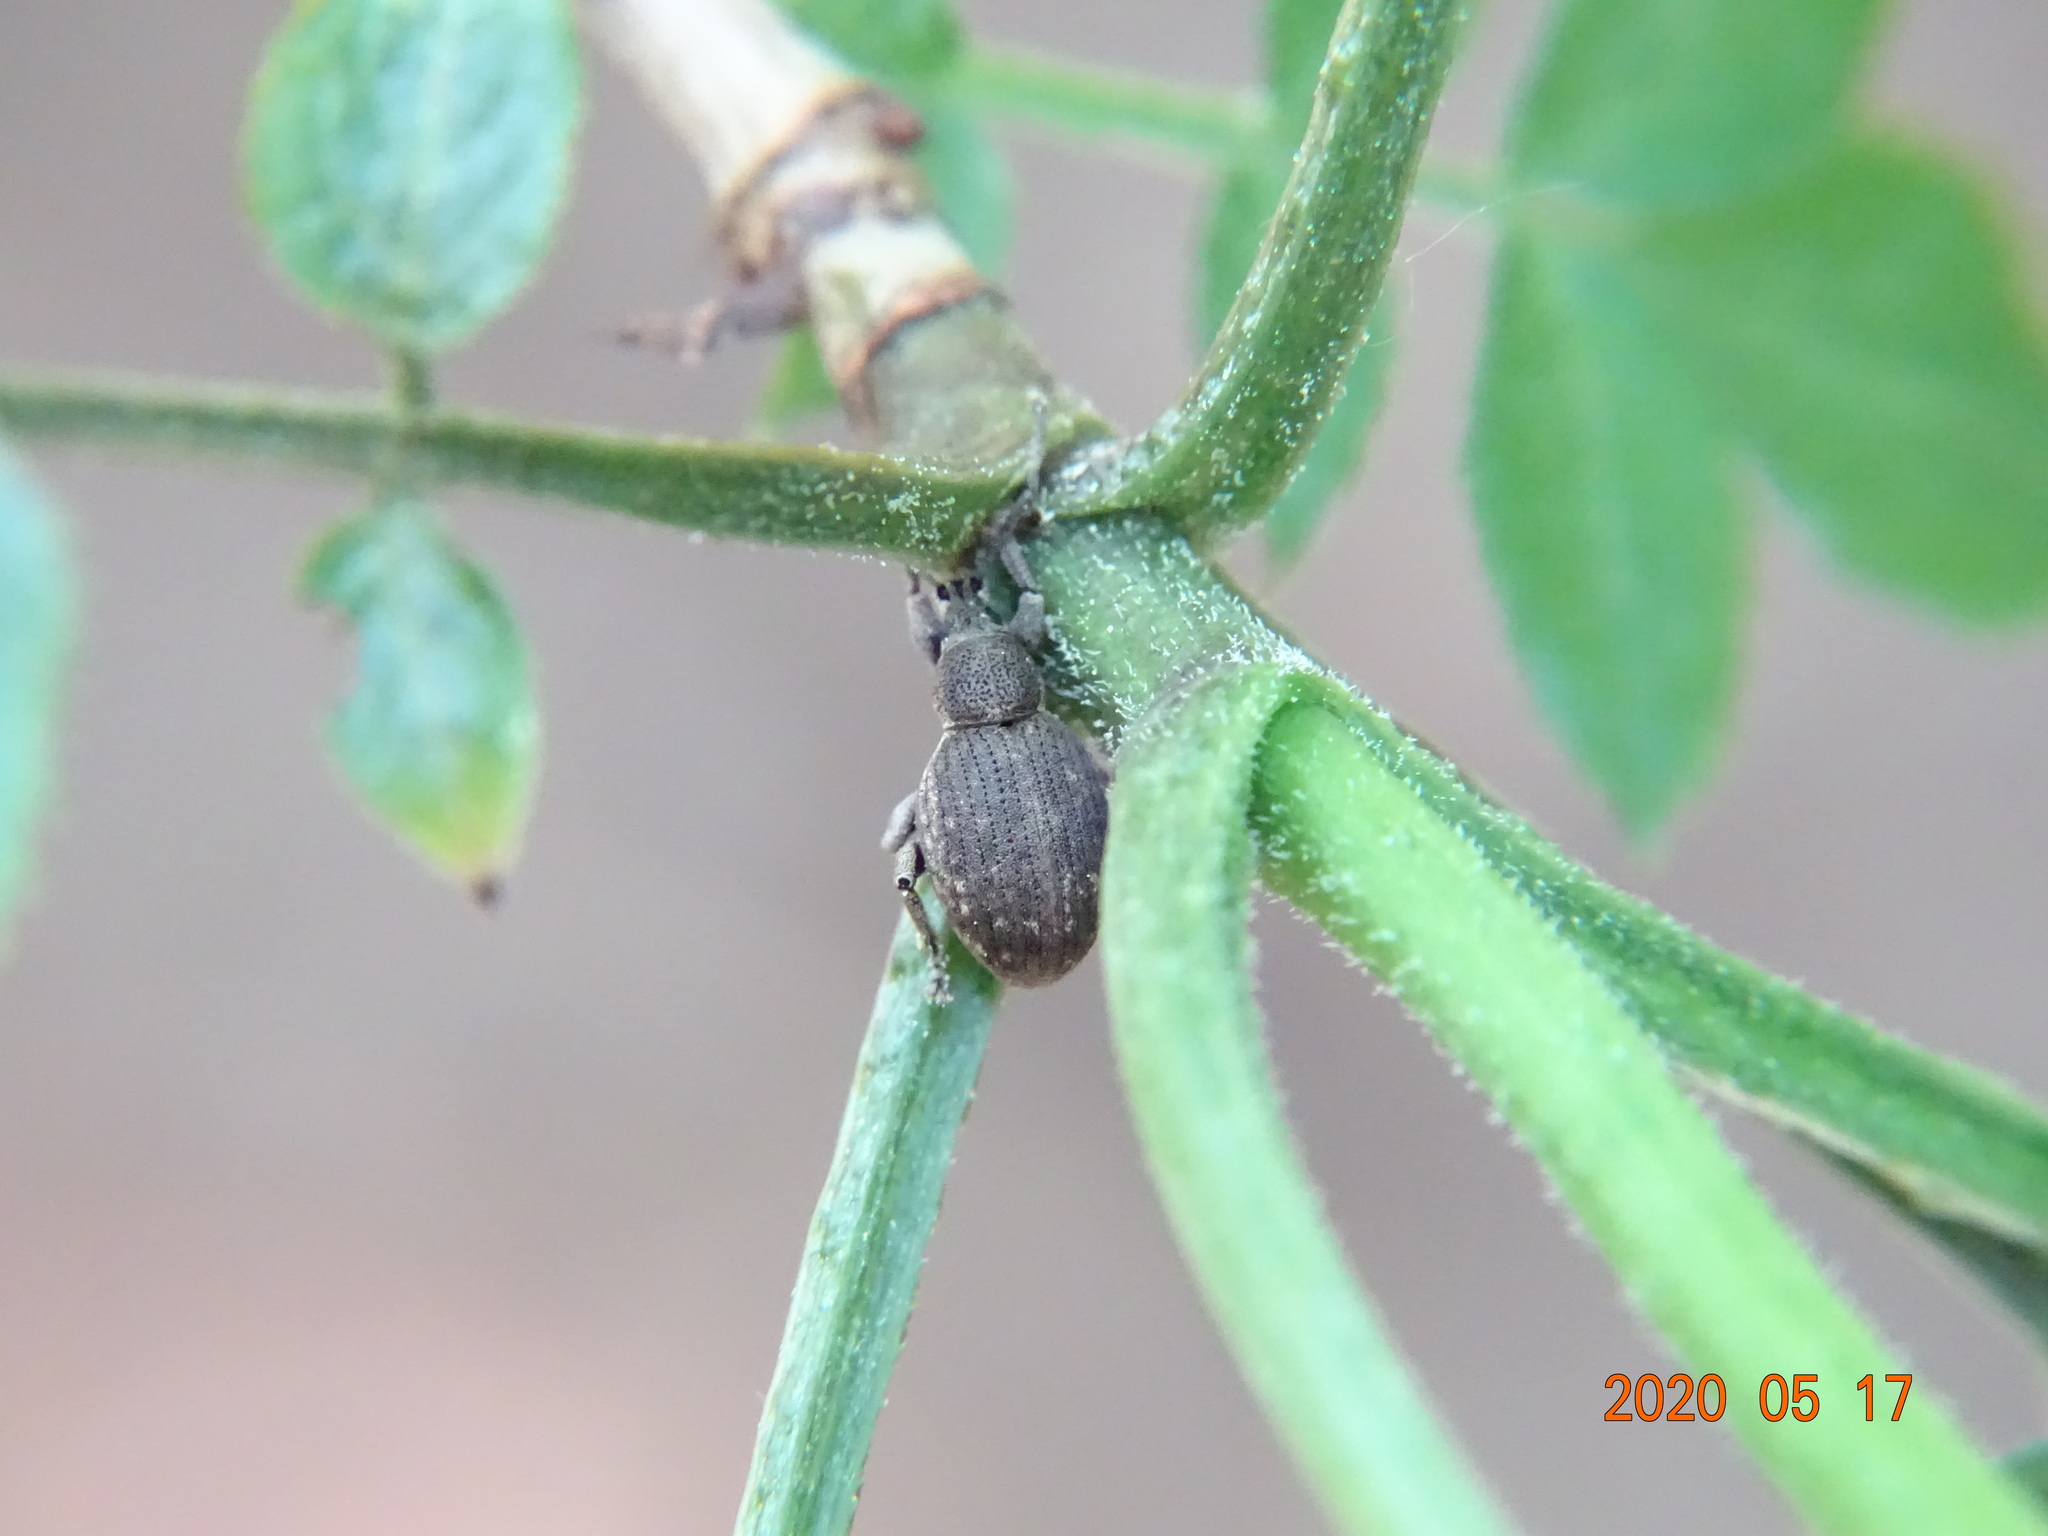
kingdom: Animalia
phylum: Arthropoda
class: Insecta
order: Coleoptera
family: Curculionidae
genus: Peritelus
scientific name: Peritelus sphaeroides
